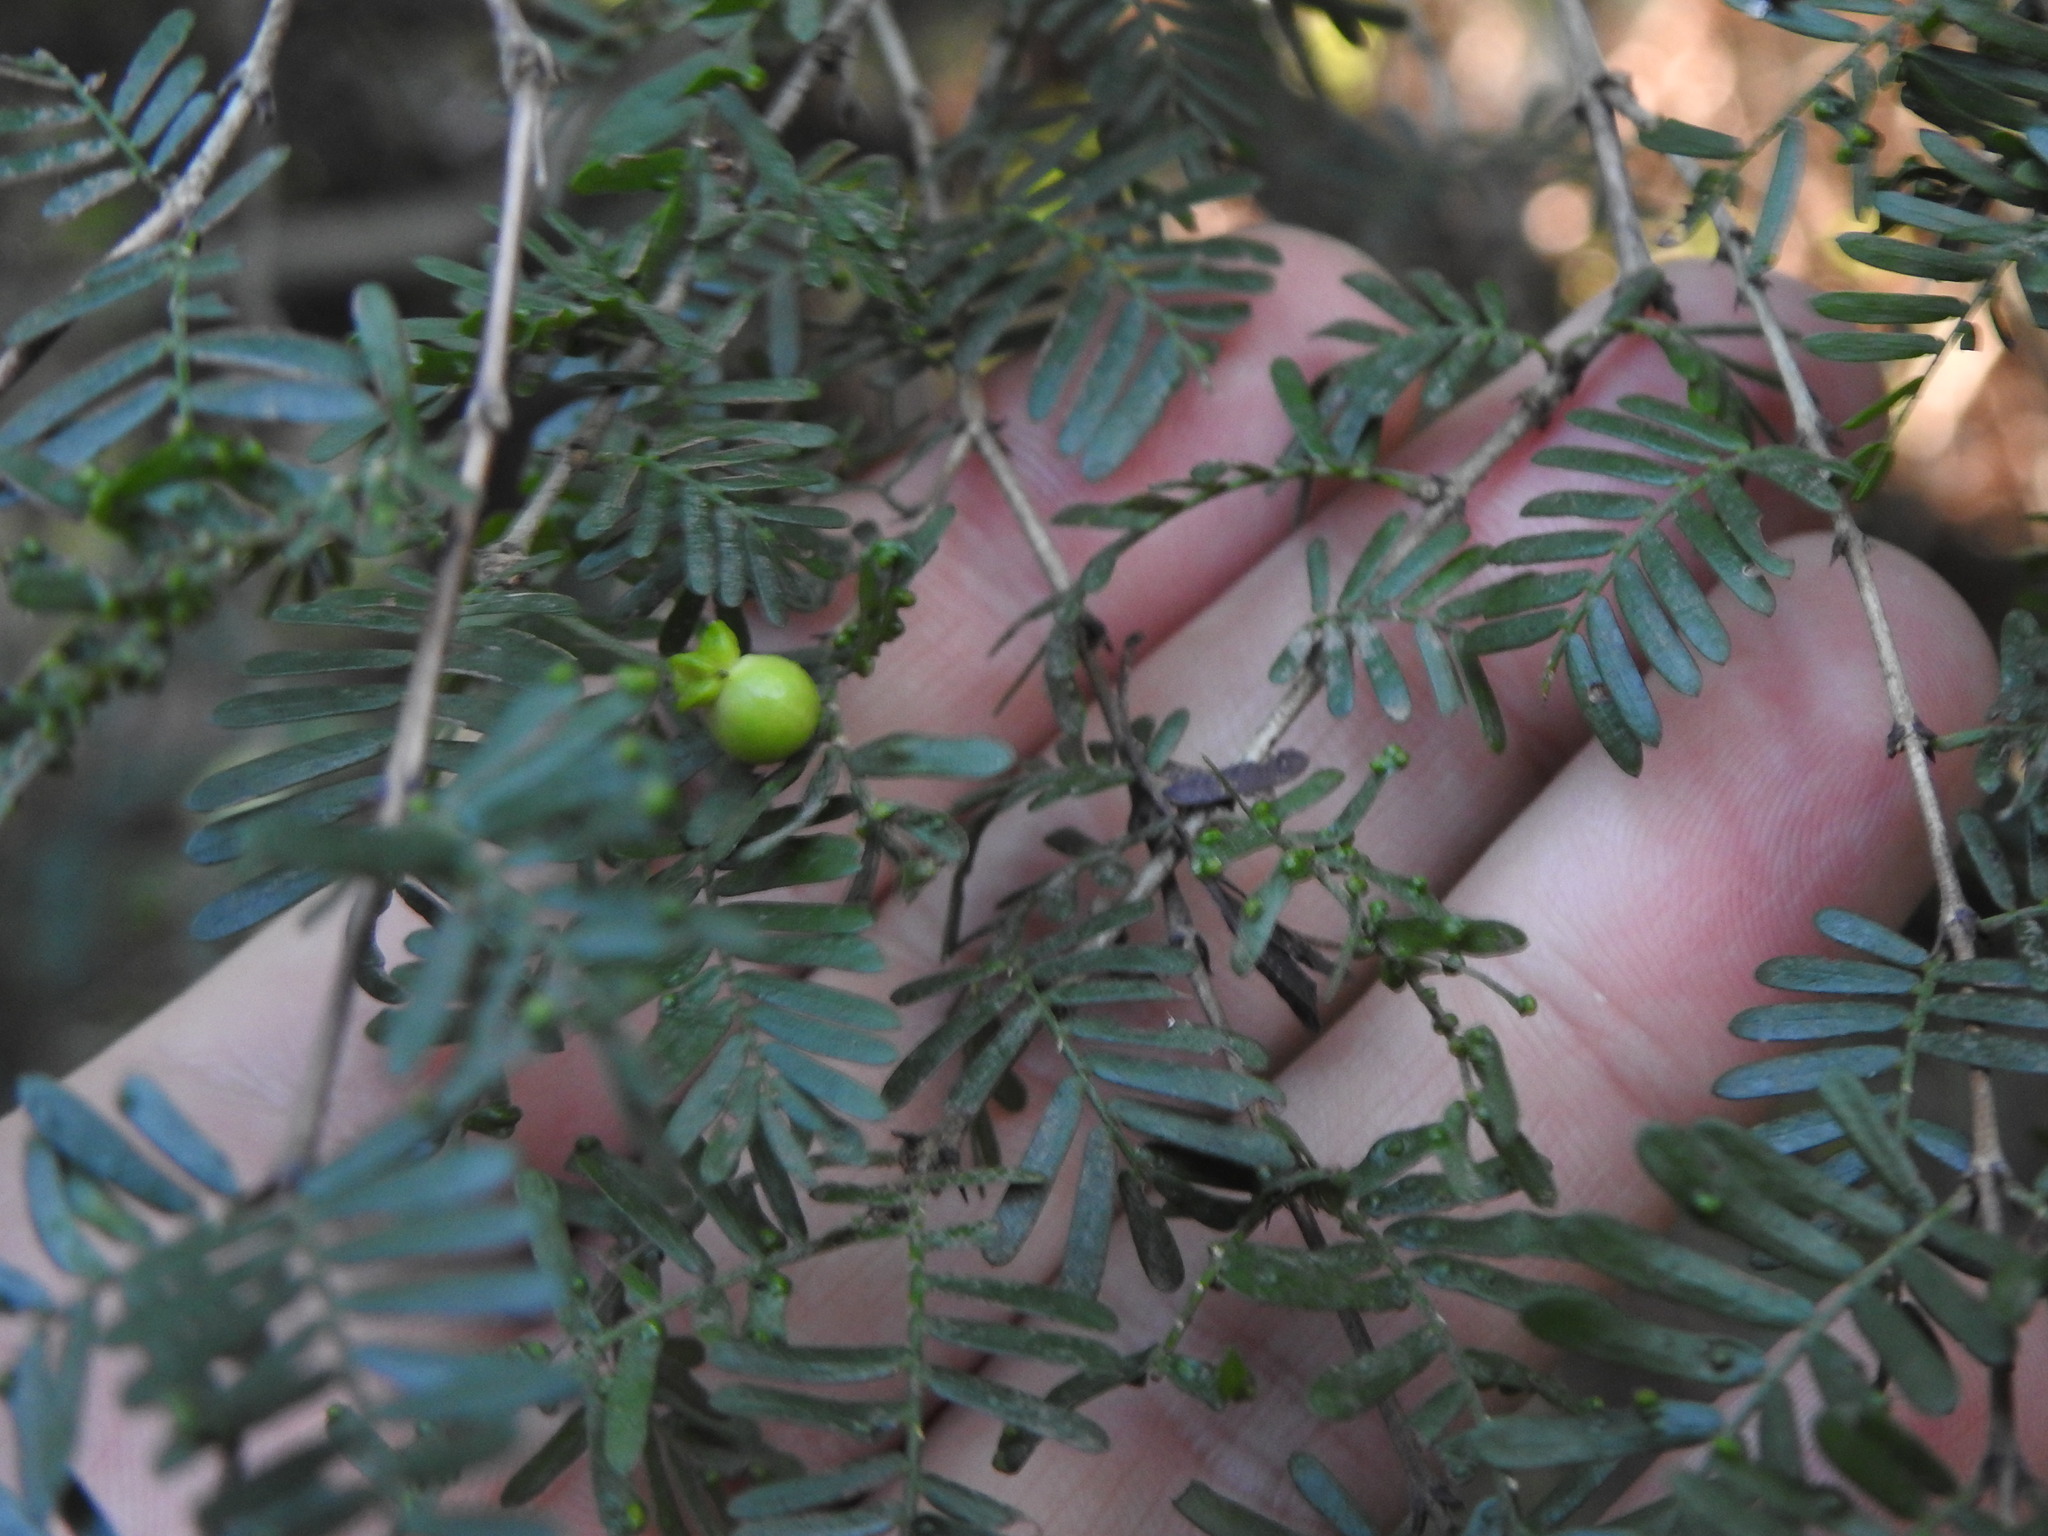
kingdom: Plantae
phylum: Tracheophyta
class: Magnoliopsida
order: Zygophyllales
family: Zygophyllaceae
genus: Porlieria
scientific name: Porlieria microphylla
